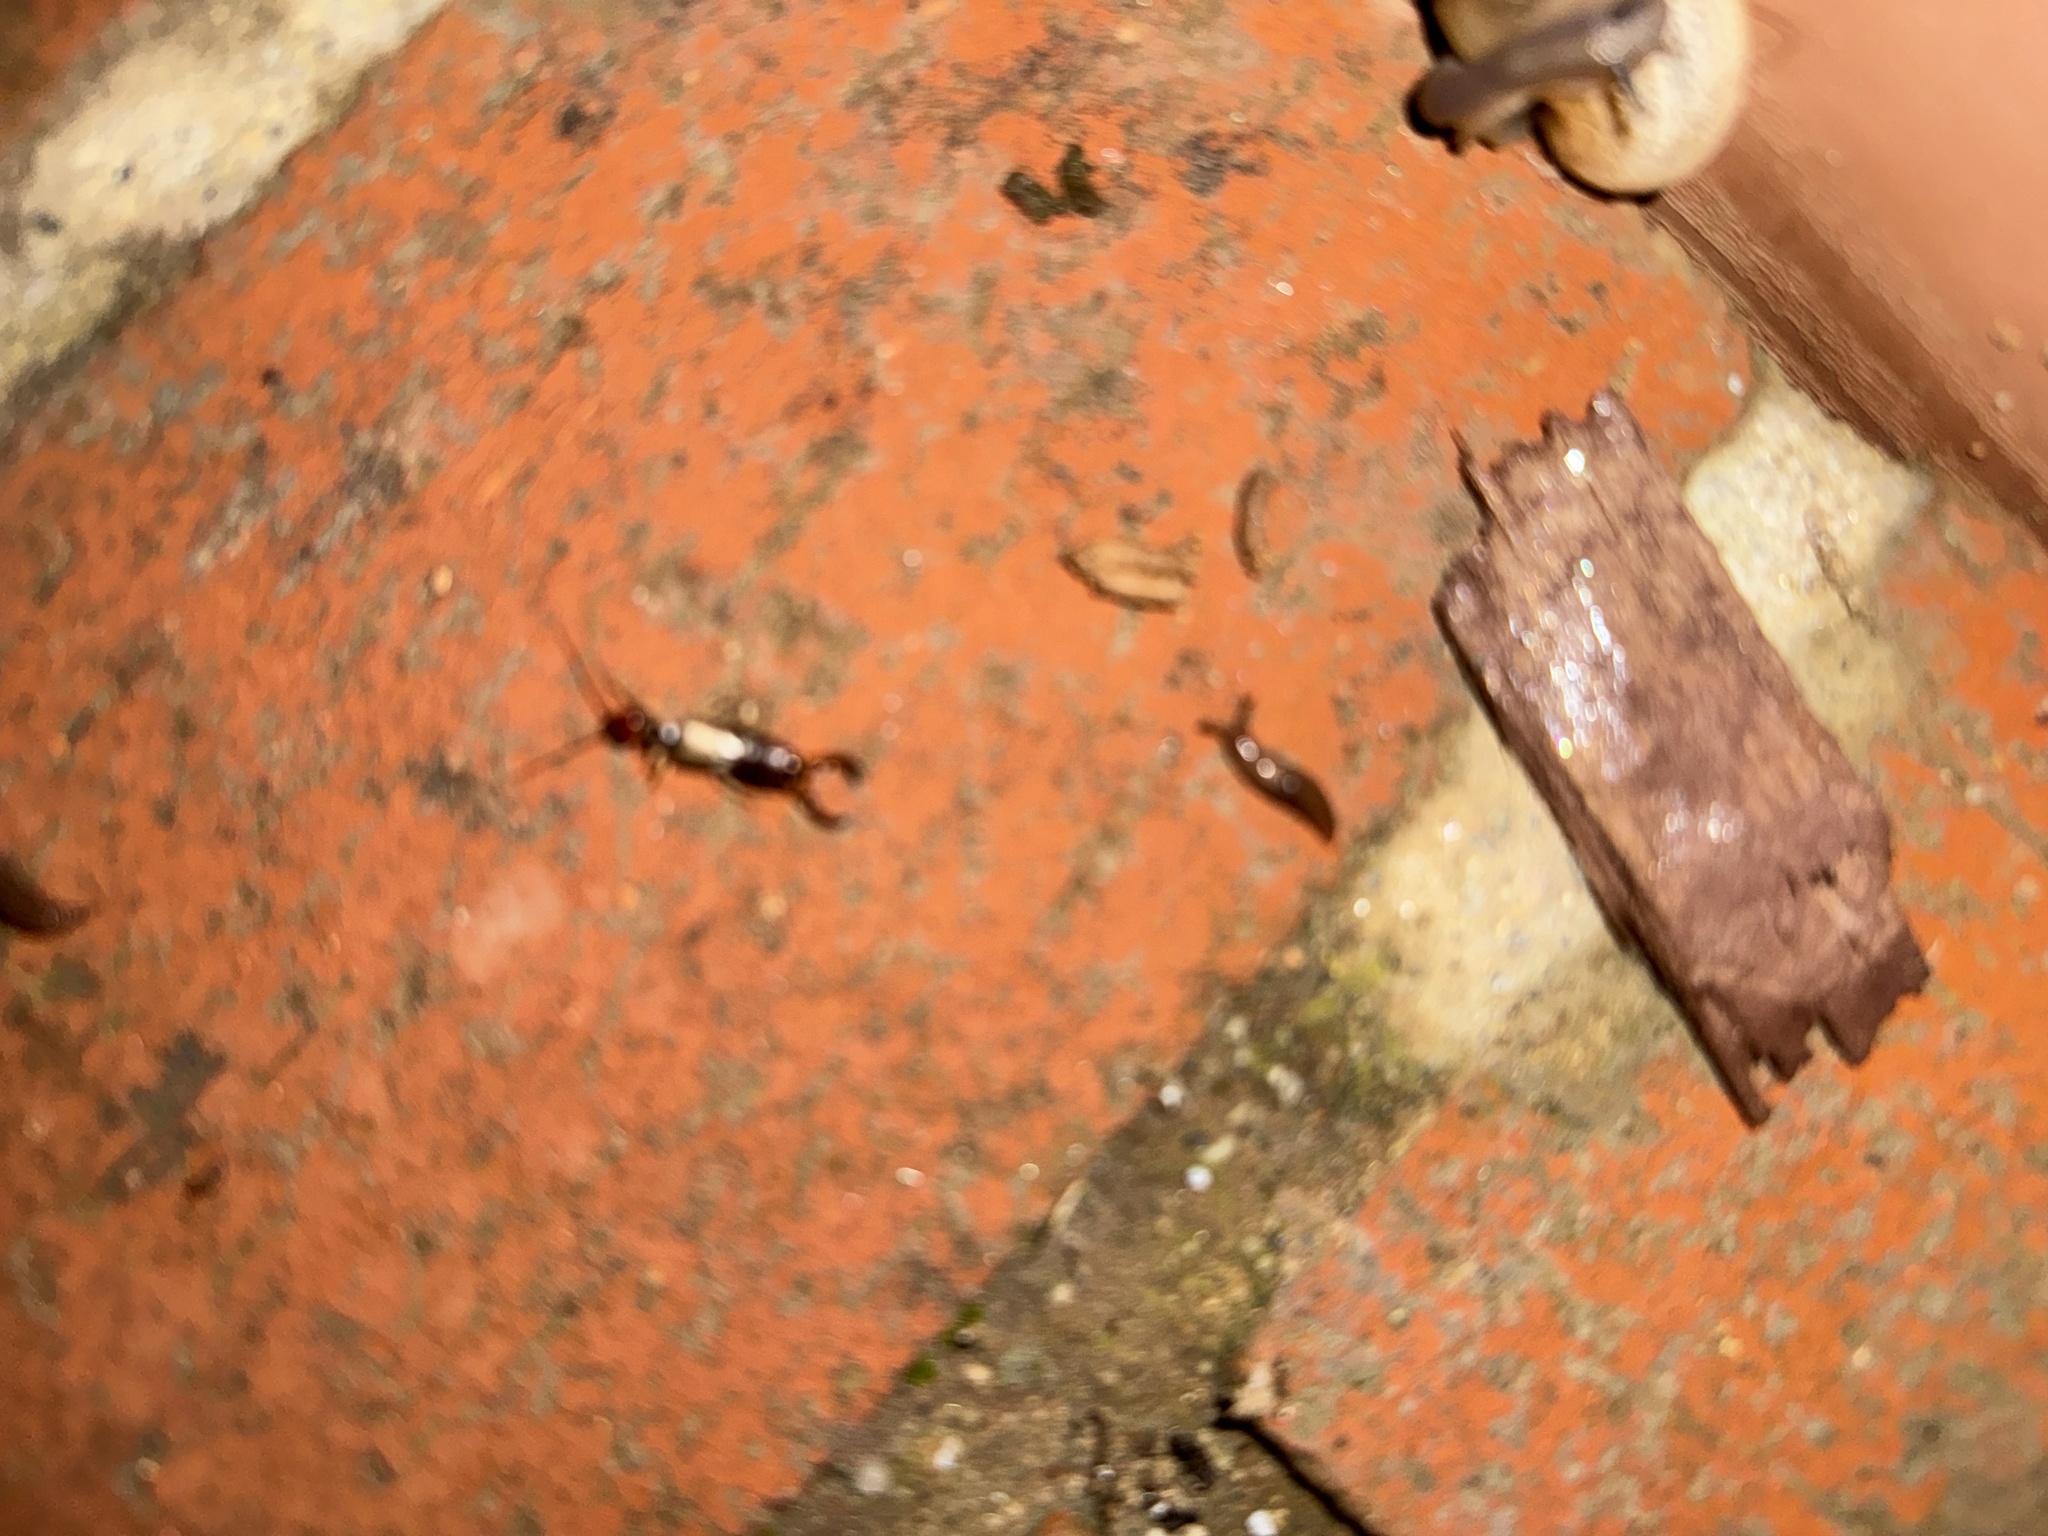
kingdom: Animalia
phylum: Arthropoda
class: Insecta
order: Dermaptera
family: Forficulidae
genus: Forficula
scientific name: Forficula dentata
